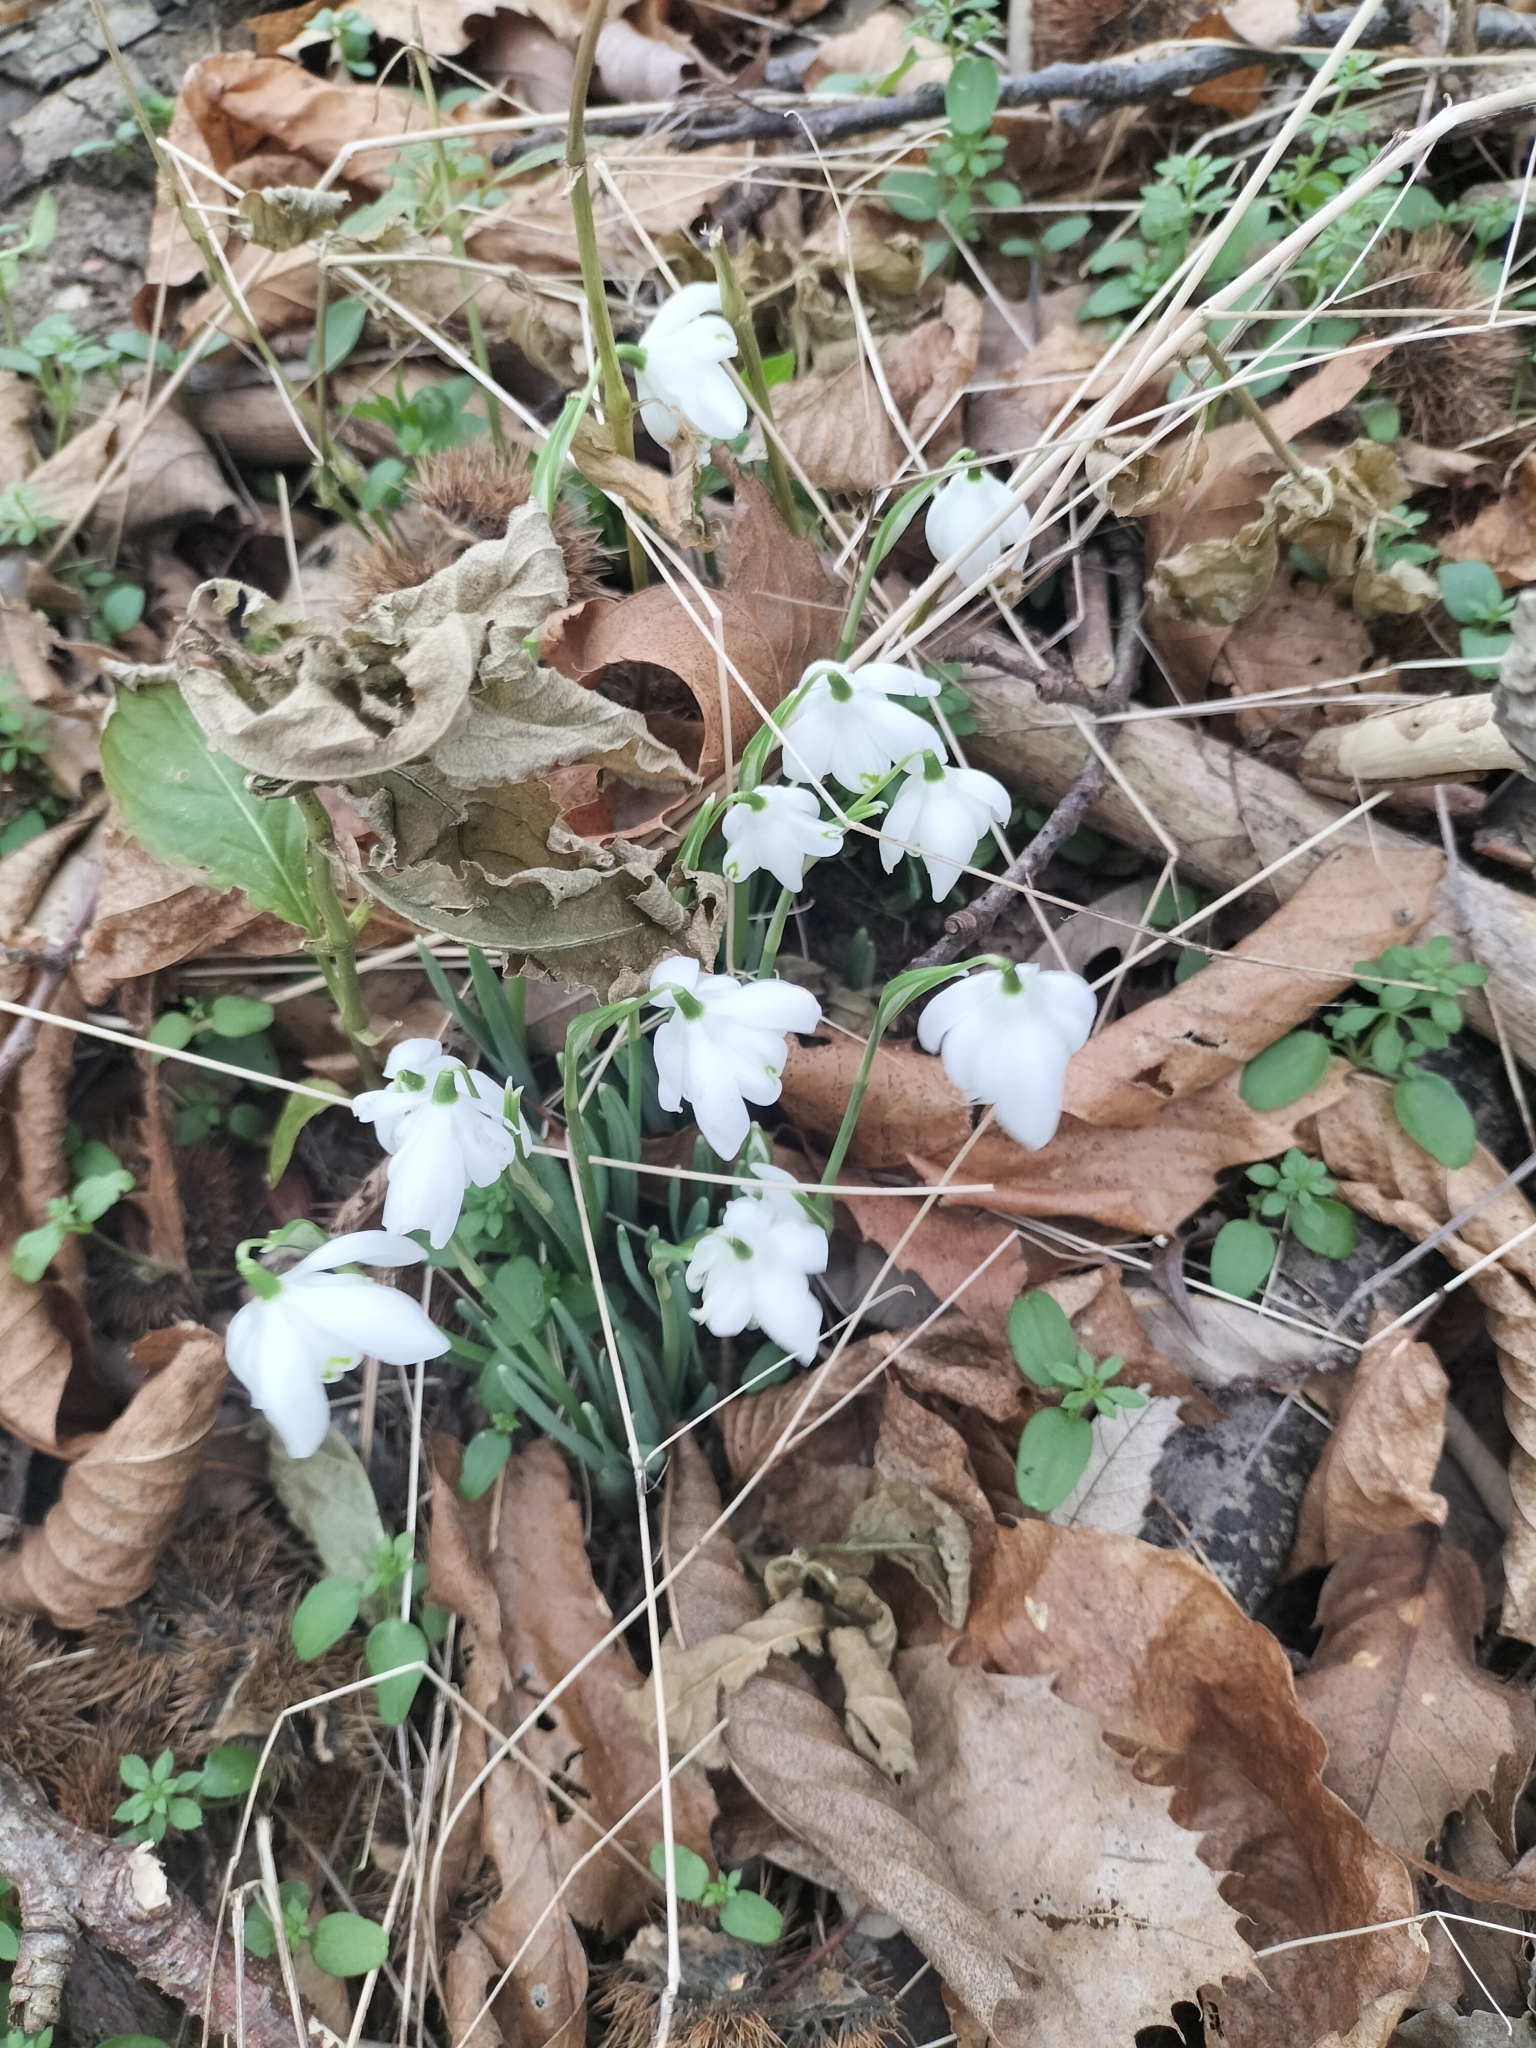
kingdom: Plantae
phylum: Tracheophyta
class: Liliopsida
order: Asparagales
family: Amaryllidaceae
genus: Galanthus
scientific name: Galanthus nivalis
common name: Snowdrop
